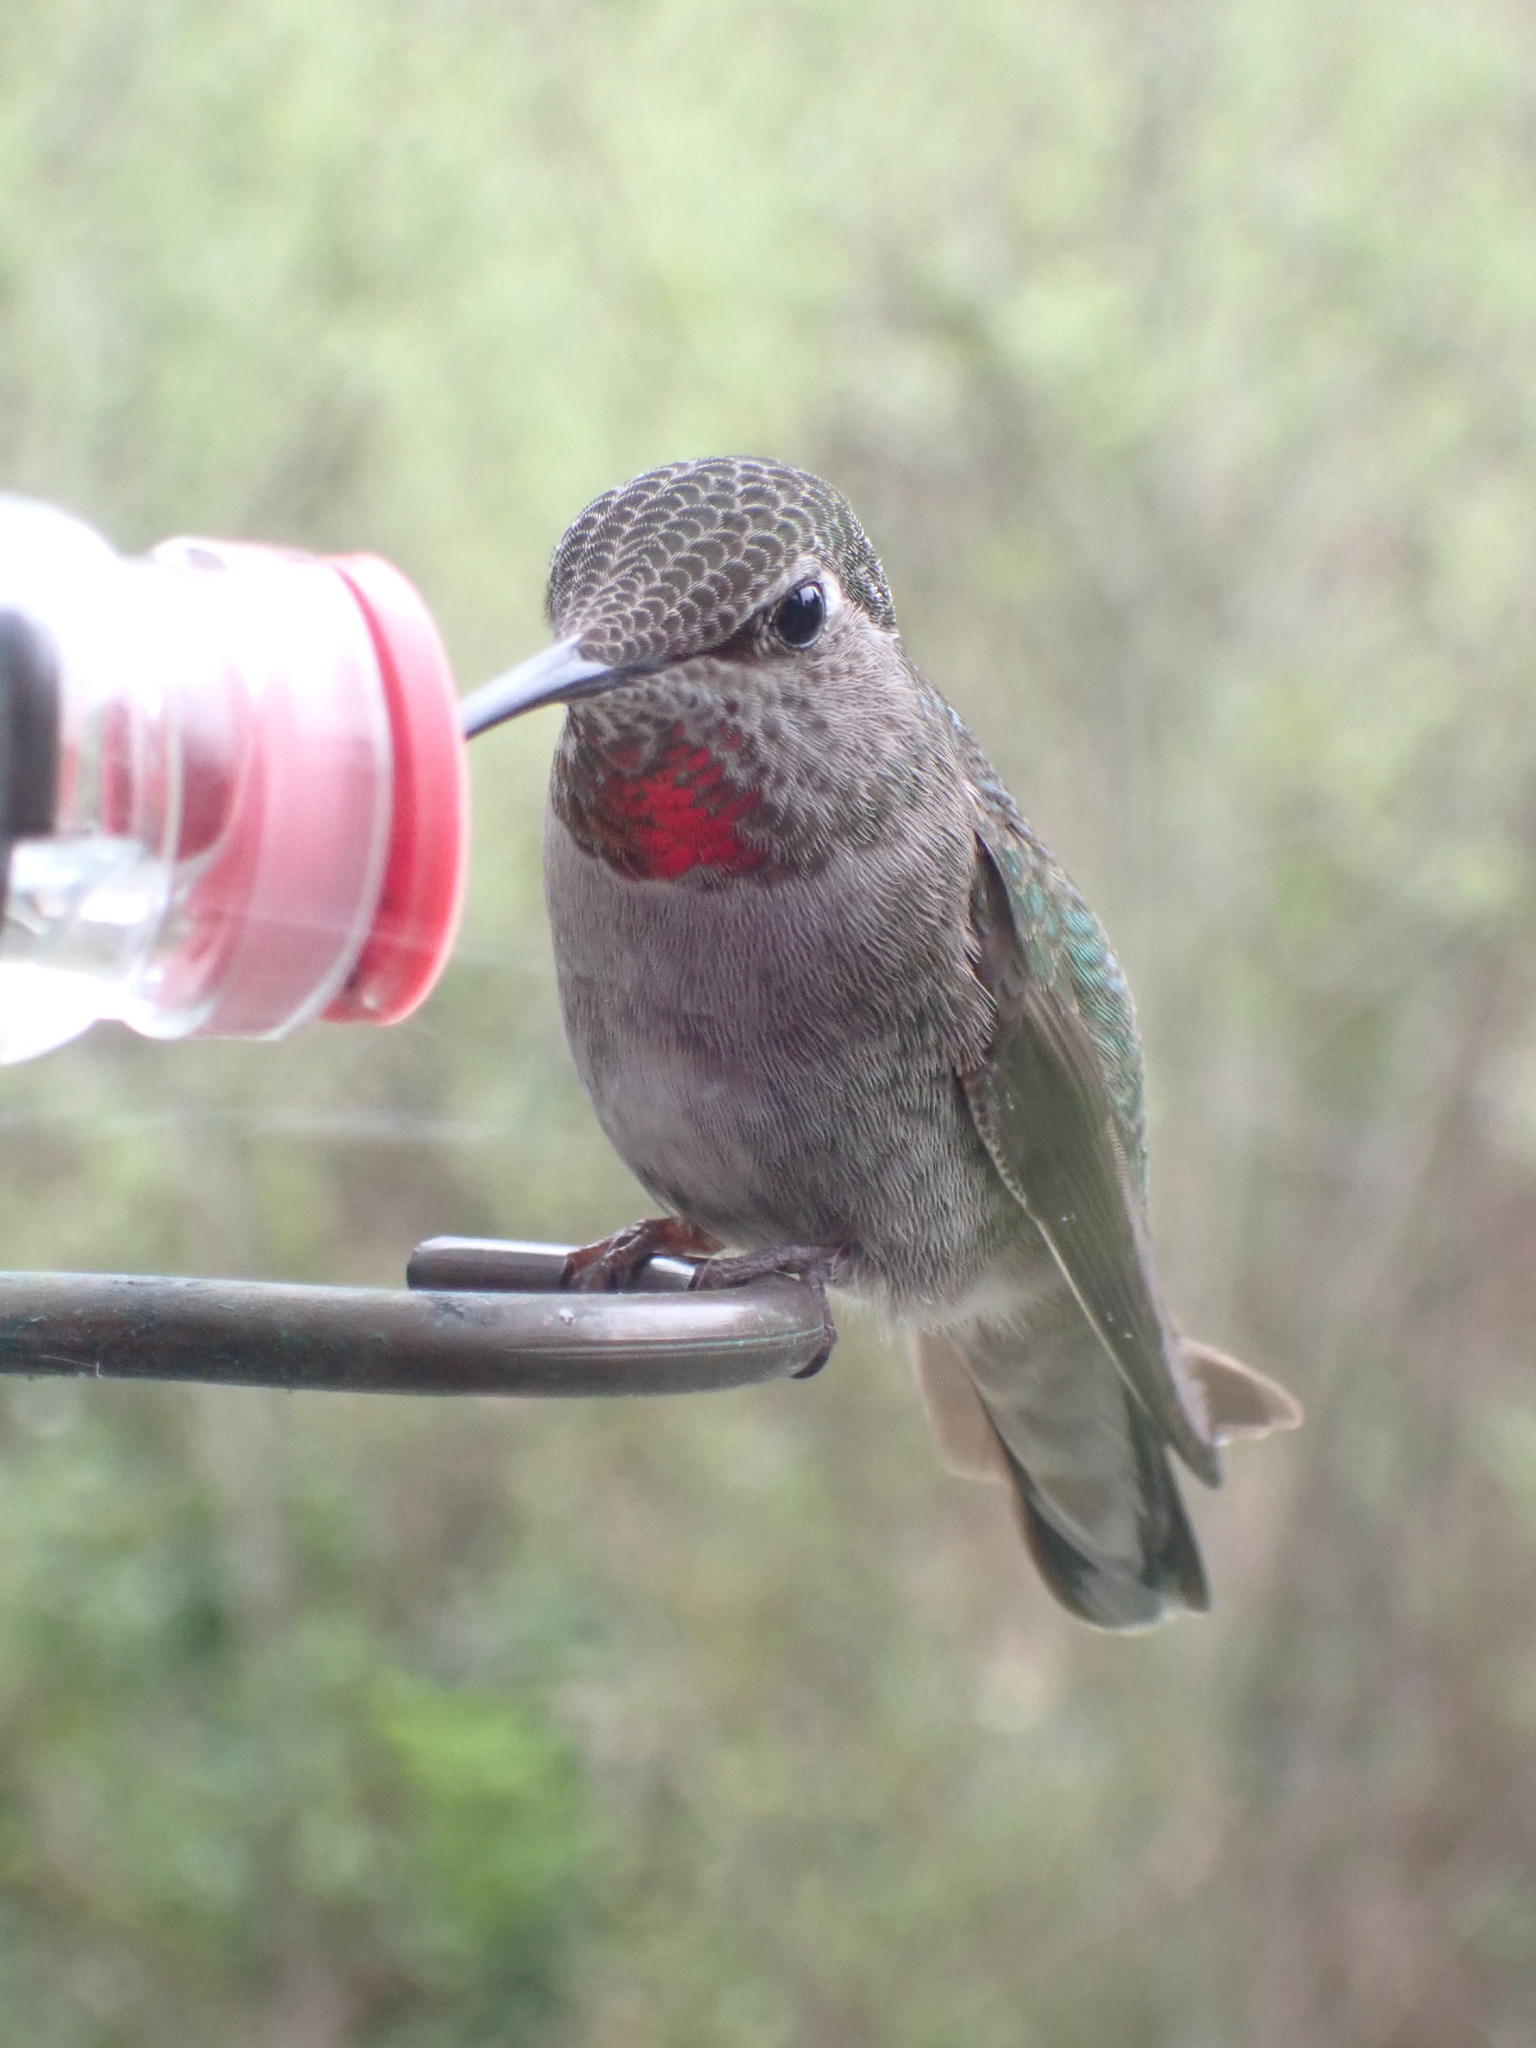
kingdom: Animalia
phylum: Chordata
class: Aves
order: Apodiformes
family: Trochilidae
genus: Calypte
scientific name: Calypte anna
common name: Anna's hummingbird
